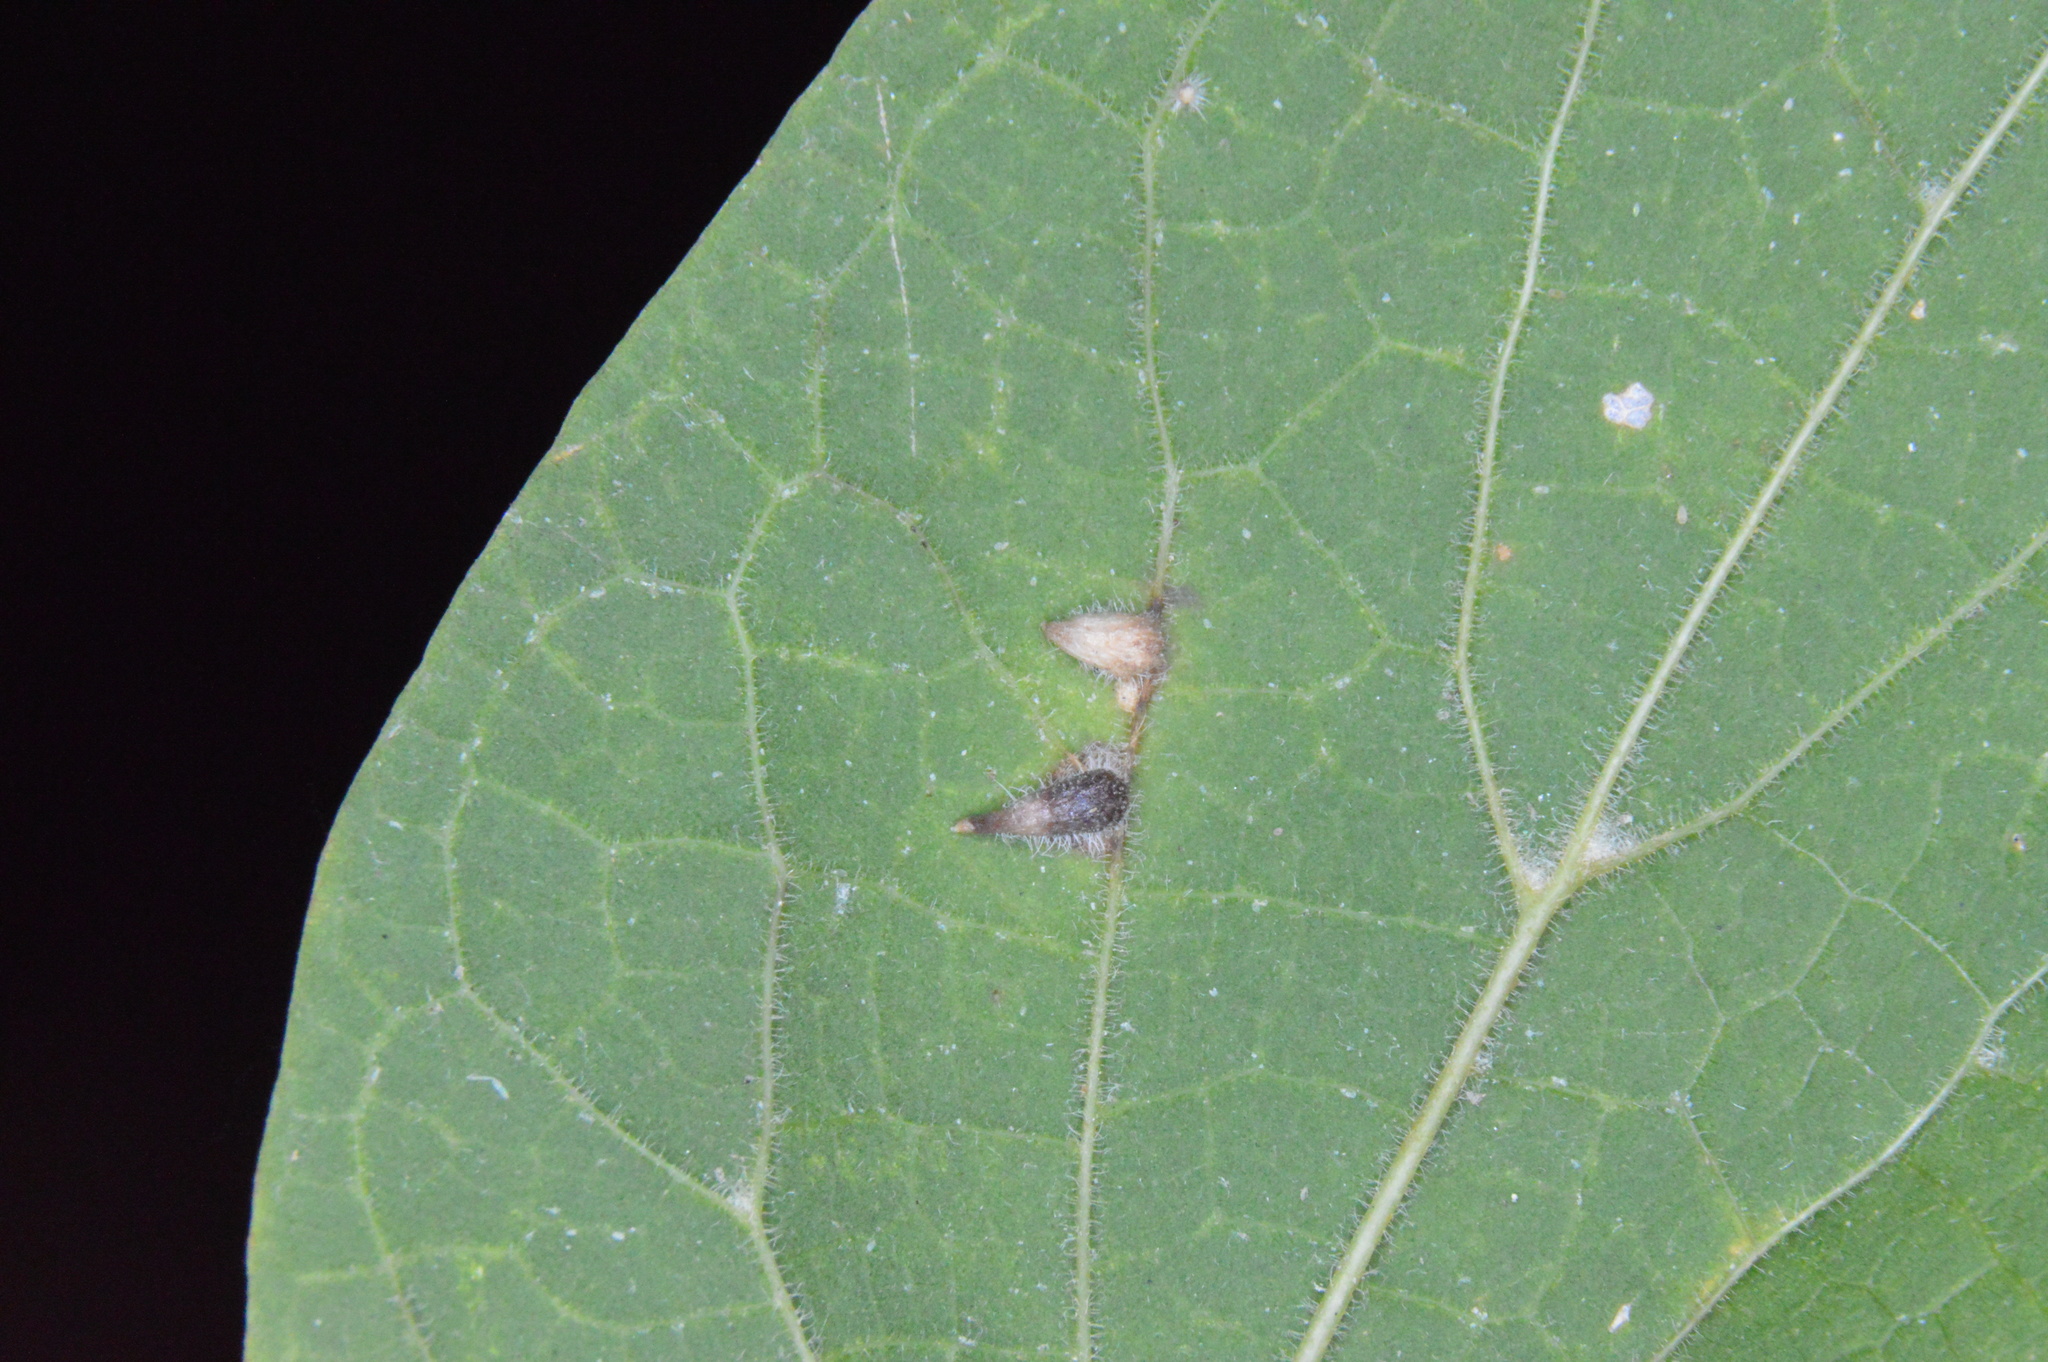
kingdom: Animalia
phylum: Arthropoda
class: Insecta
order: Diptera
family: Cecidomyiidae
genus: Celticecis
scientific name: Celticecis supina
